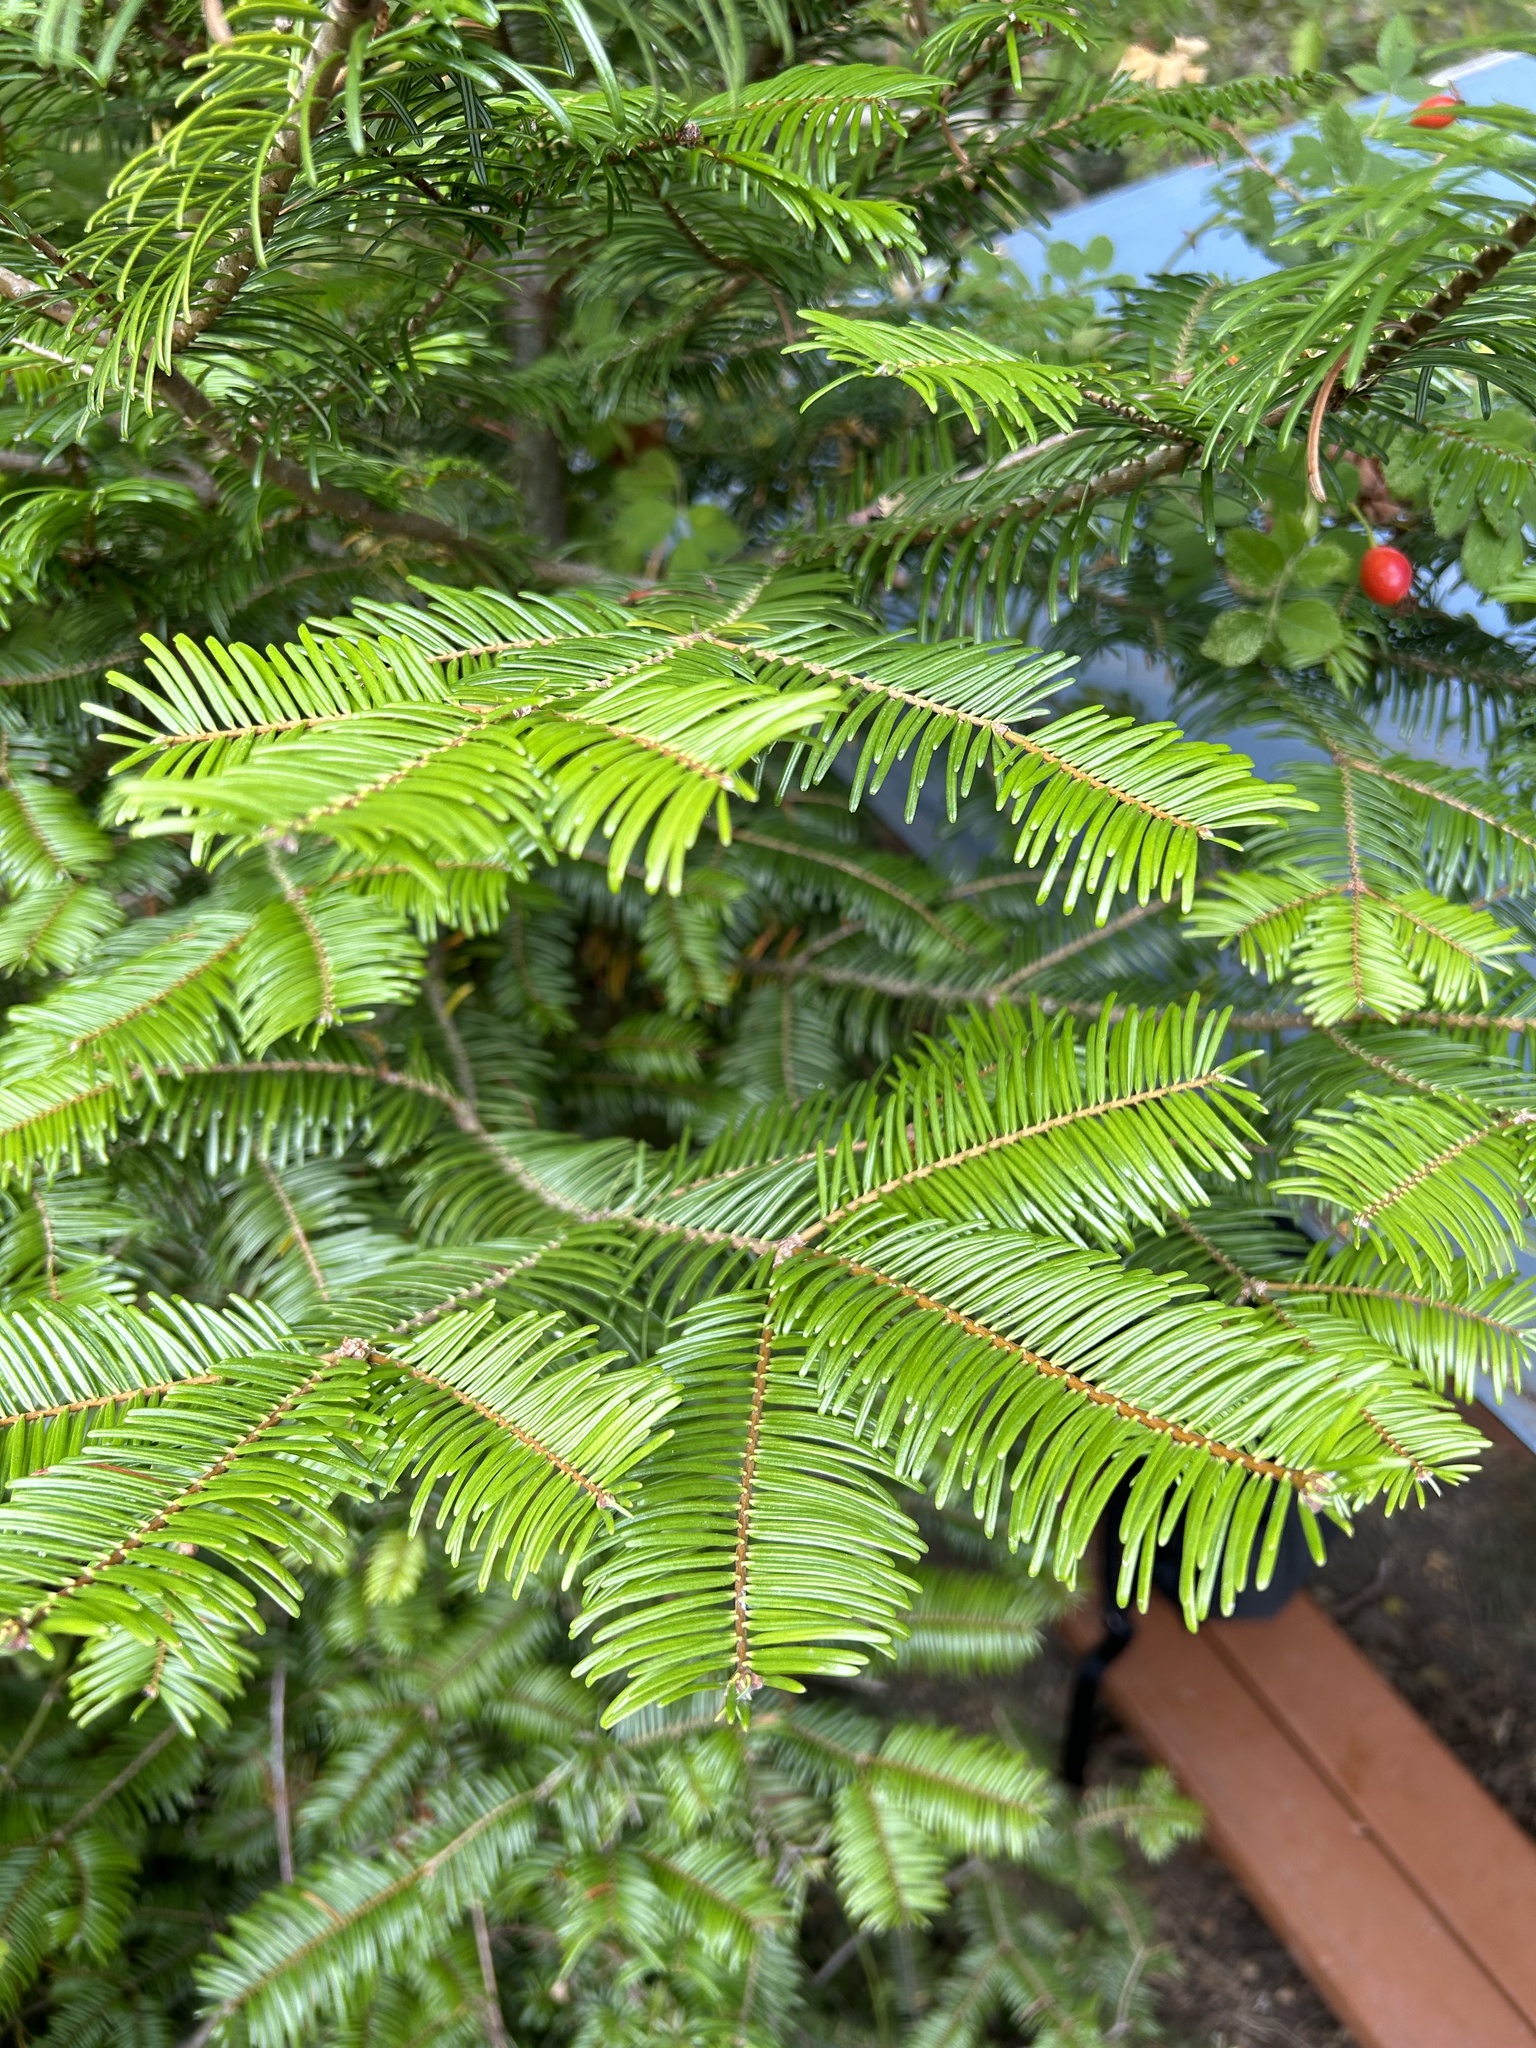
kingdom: Plantae
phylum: Tracheophyta
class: Pinopsida
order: Pinales
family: Pinaceae
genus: Abies
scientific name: Abies grandis
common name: Giant fir
